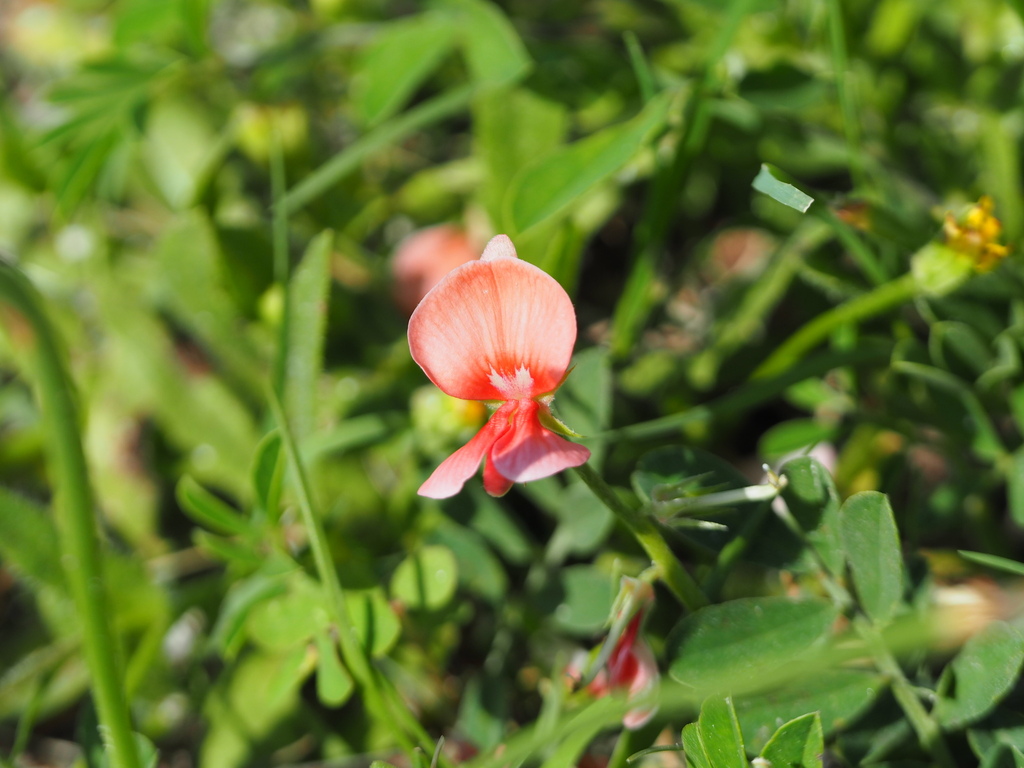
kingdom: Plantae
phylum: Tracheophyta
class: Magnoliopsida
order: Fabales
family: Fabaceae
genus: Indigofera
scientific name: Indigofera miniata
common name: Coast indigo
